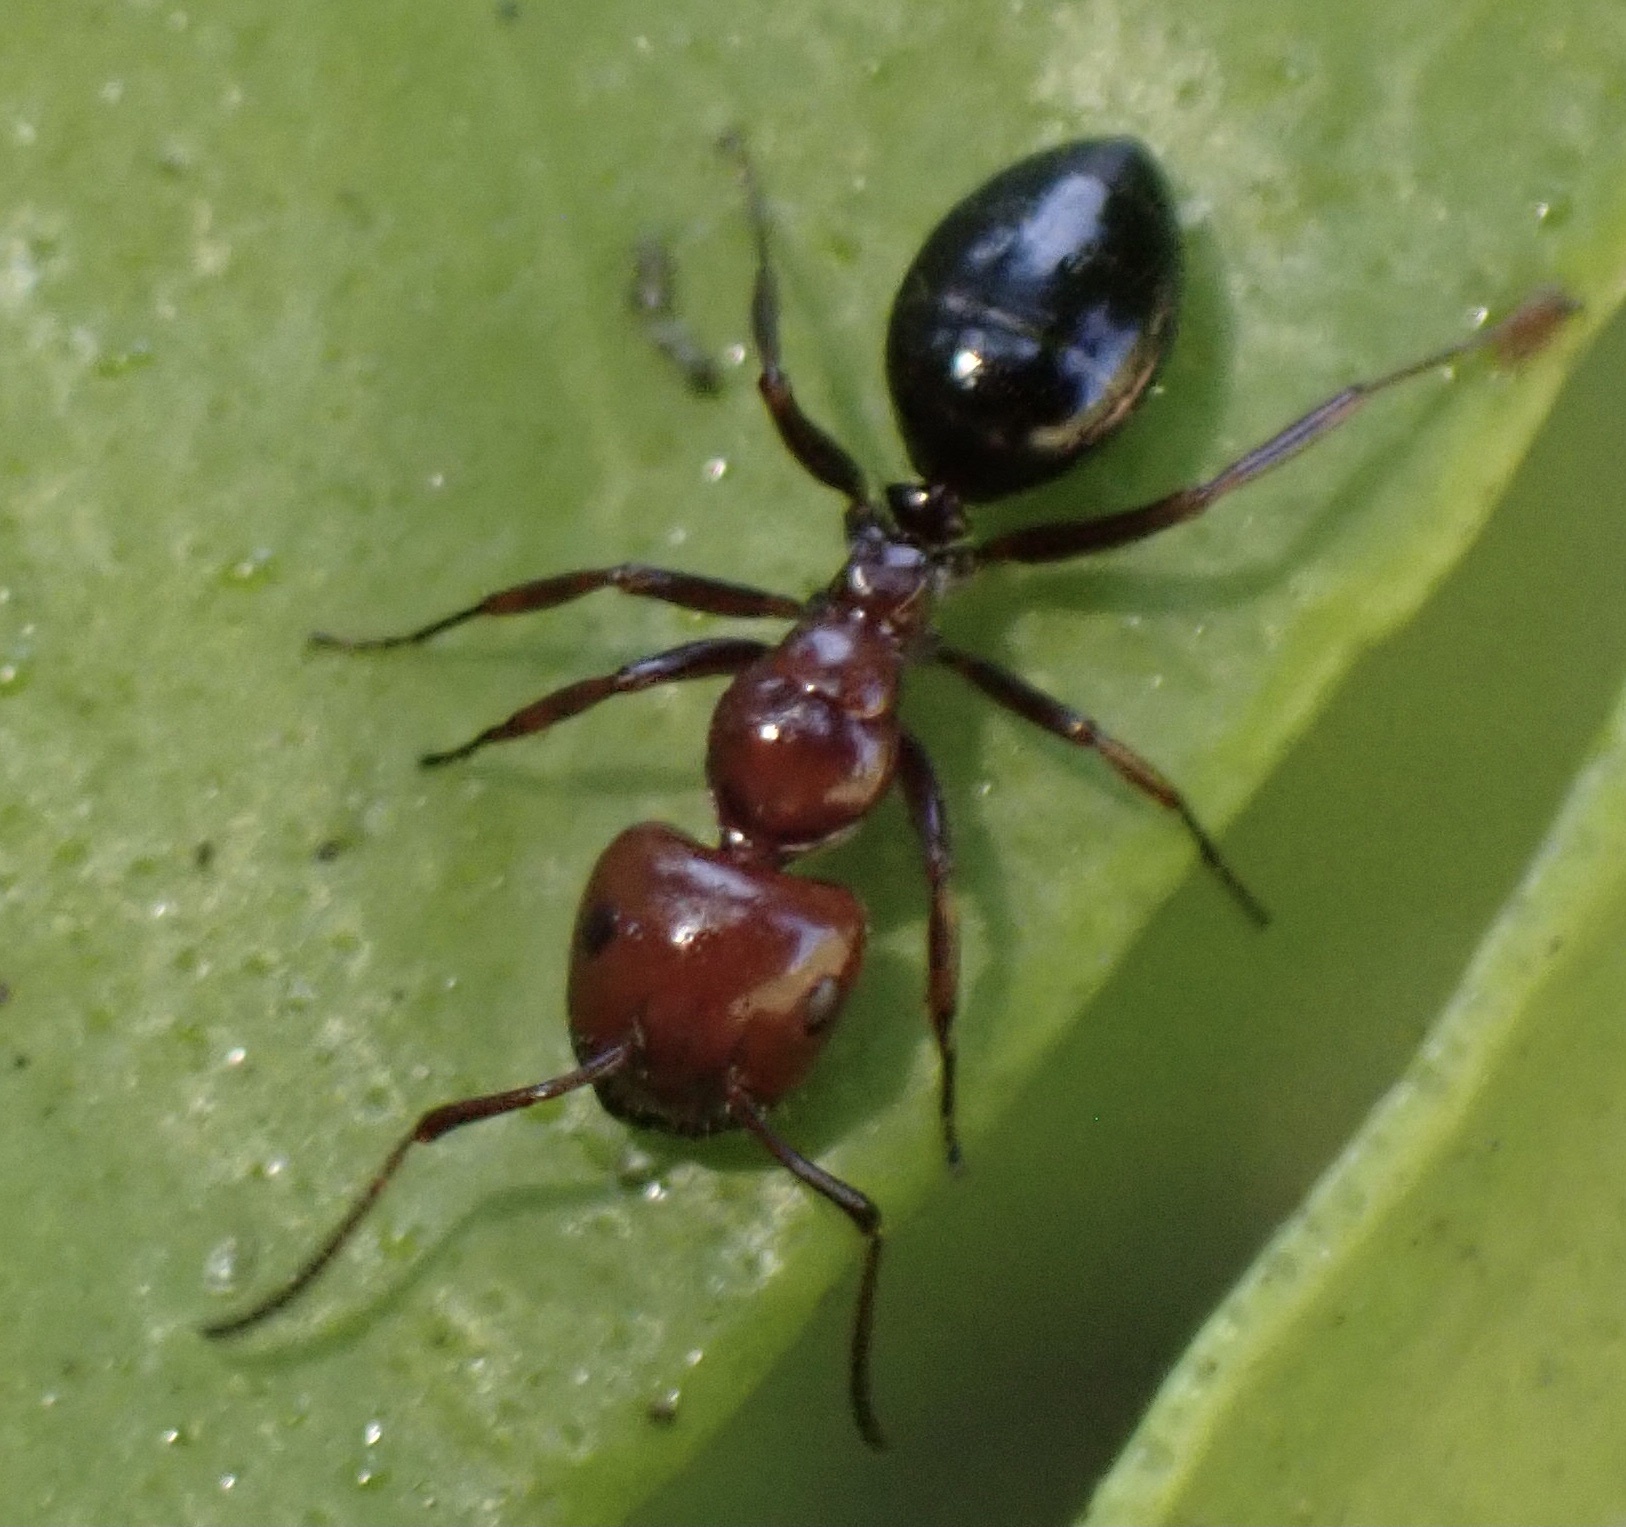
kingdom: Animalia
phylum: Arthropoda
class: Insecta
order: Hymenoptera
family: Formicidae
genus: Camponotus
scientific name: Camponotus lateralis
